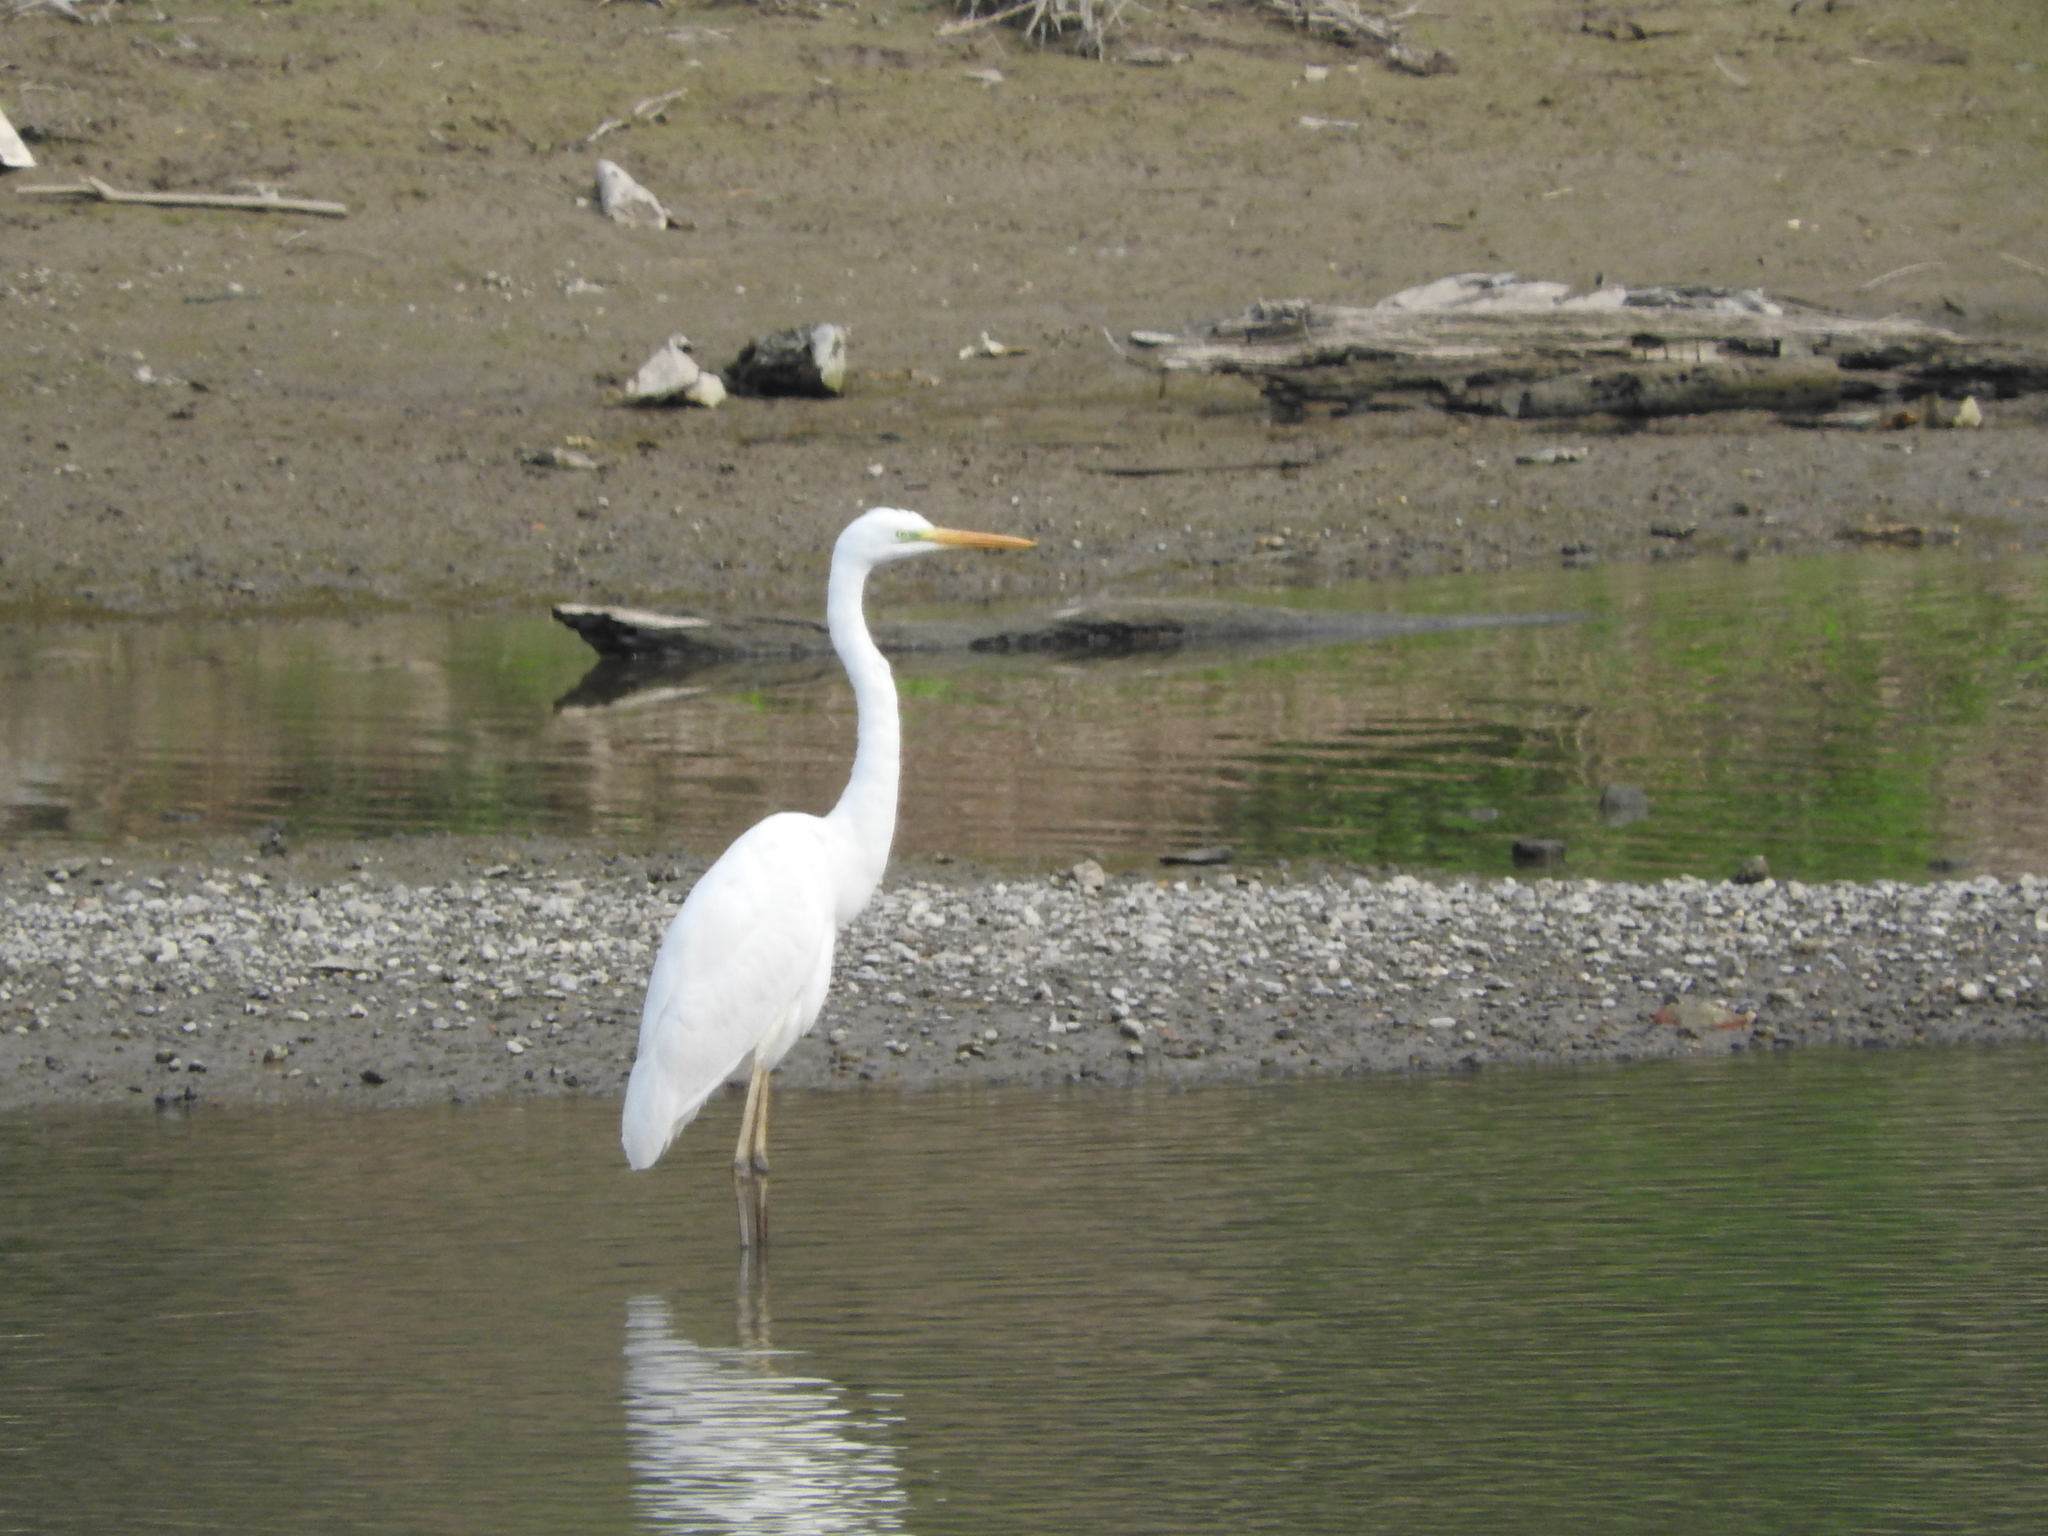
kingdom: Animalia
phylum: Chordata
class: Aves
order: Pelecaniformes
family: Ardeidae
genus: Ardea
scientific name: Ardea alba
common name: Great egret
